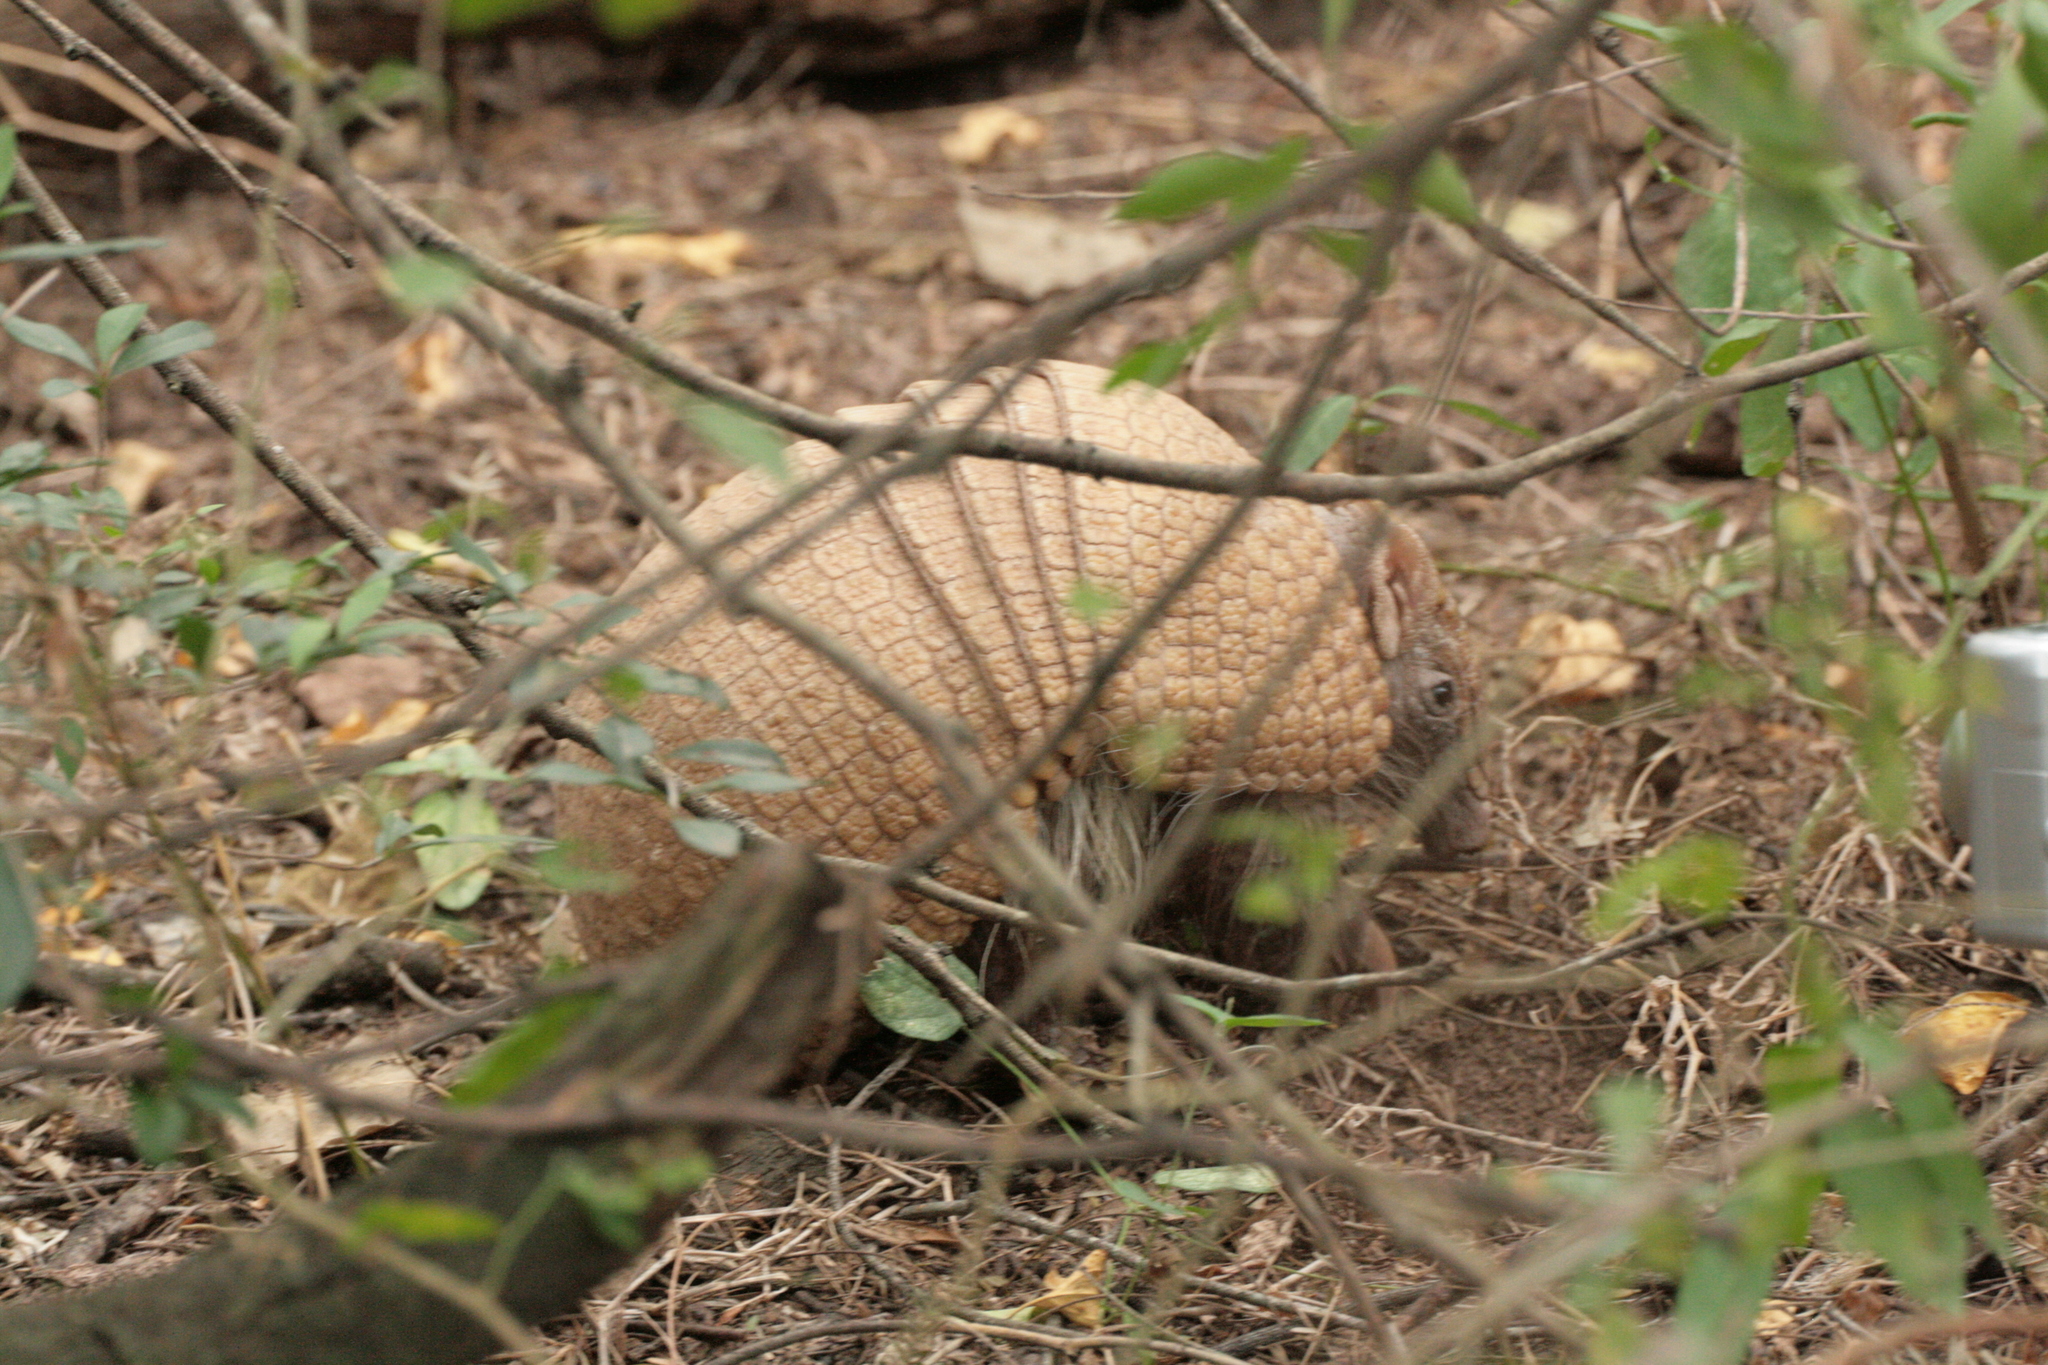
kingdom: Animalia
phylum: Chordata
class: Mammalia
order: Cingulata
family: Dasypodidae
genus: Tolypeutes
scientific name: Tolypeutes matacus
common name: Southern three-banded armadillo
